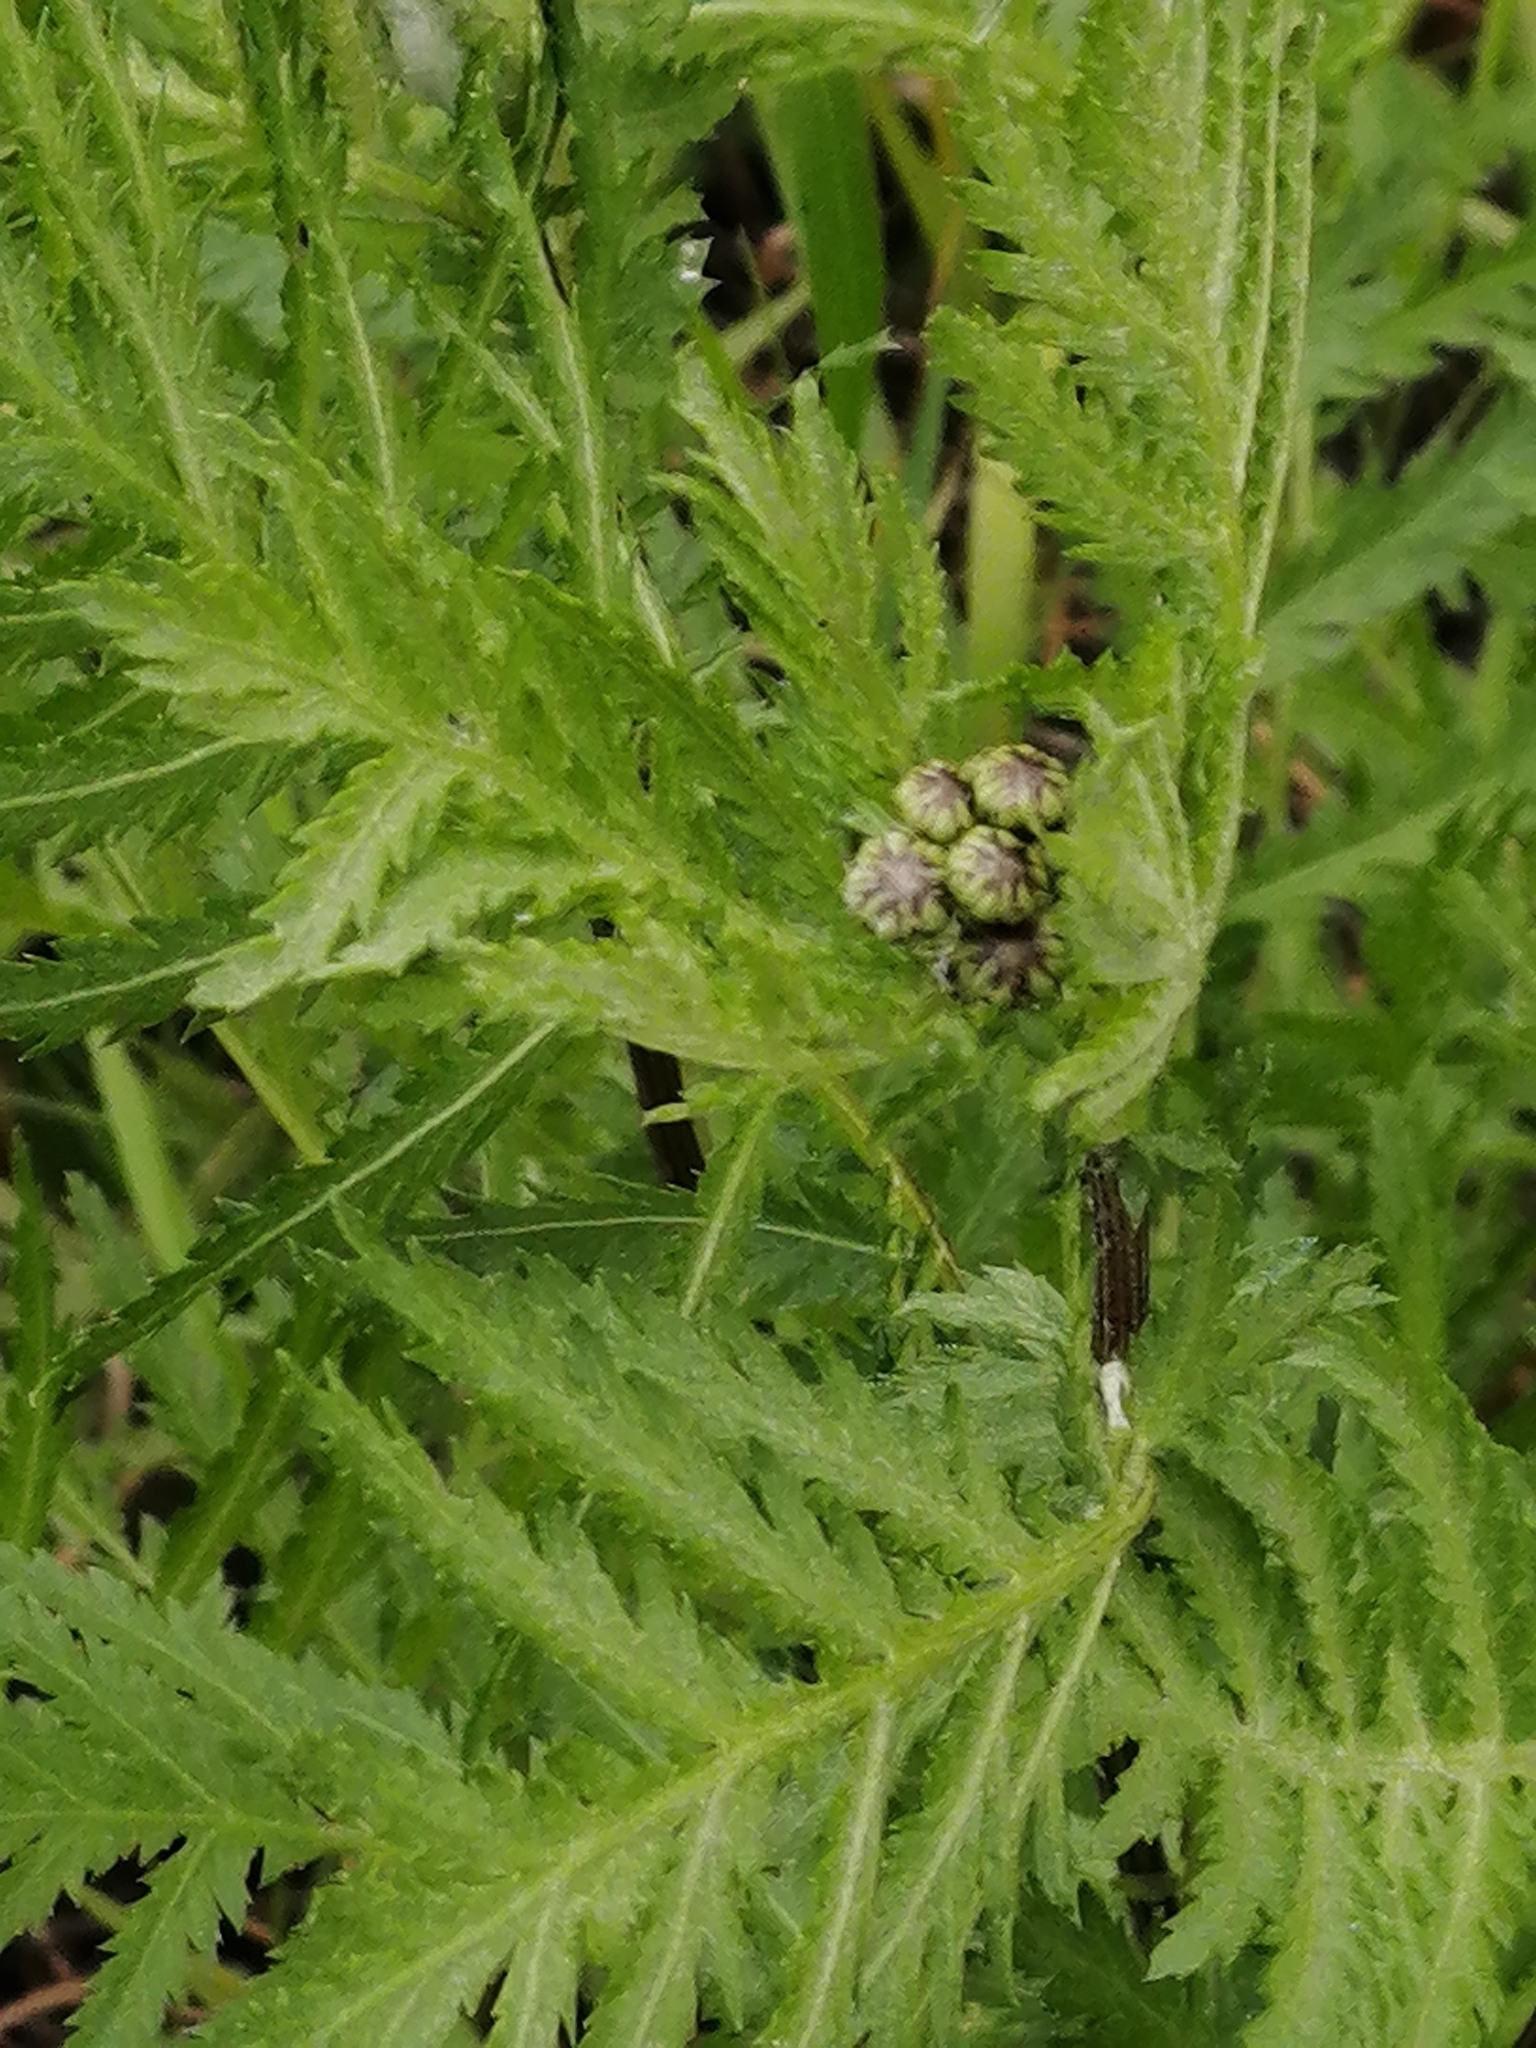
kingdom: Plantae
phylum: Tracheophyta
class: Magnoliopsida
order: Asterales
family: Asteraceae
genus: Tanacetum
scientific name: Tanacetum vulgare
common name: Common tansy
